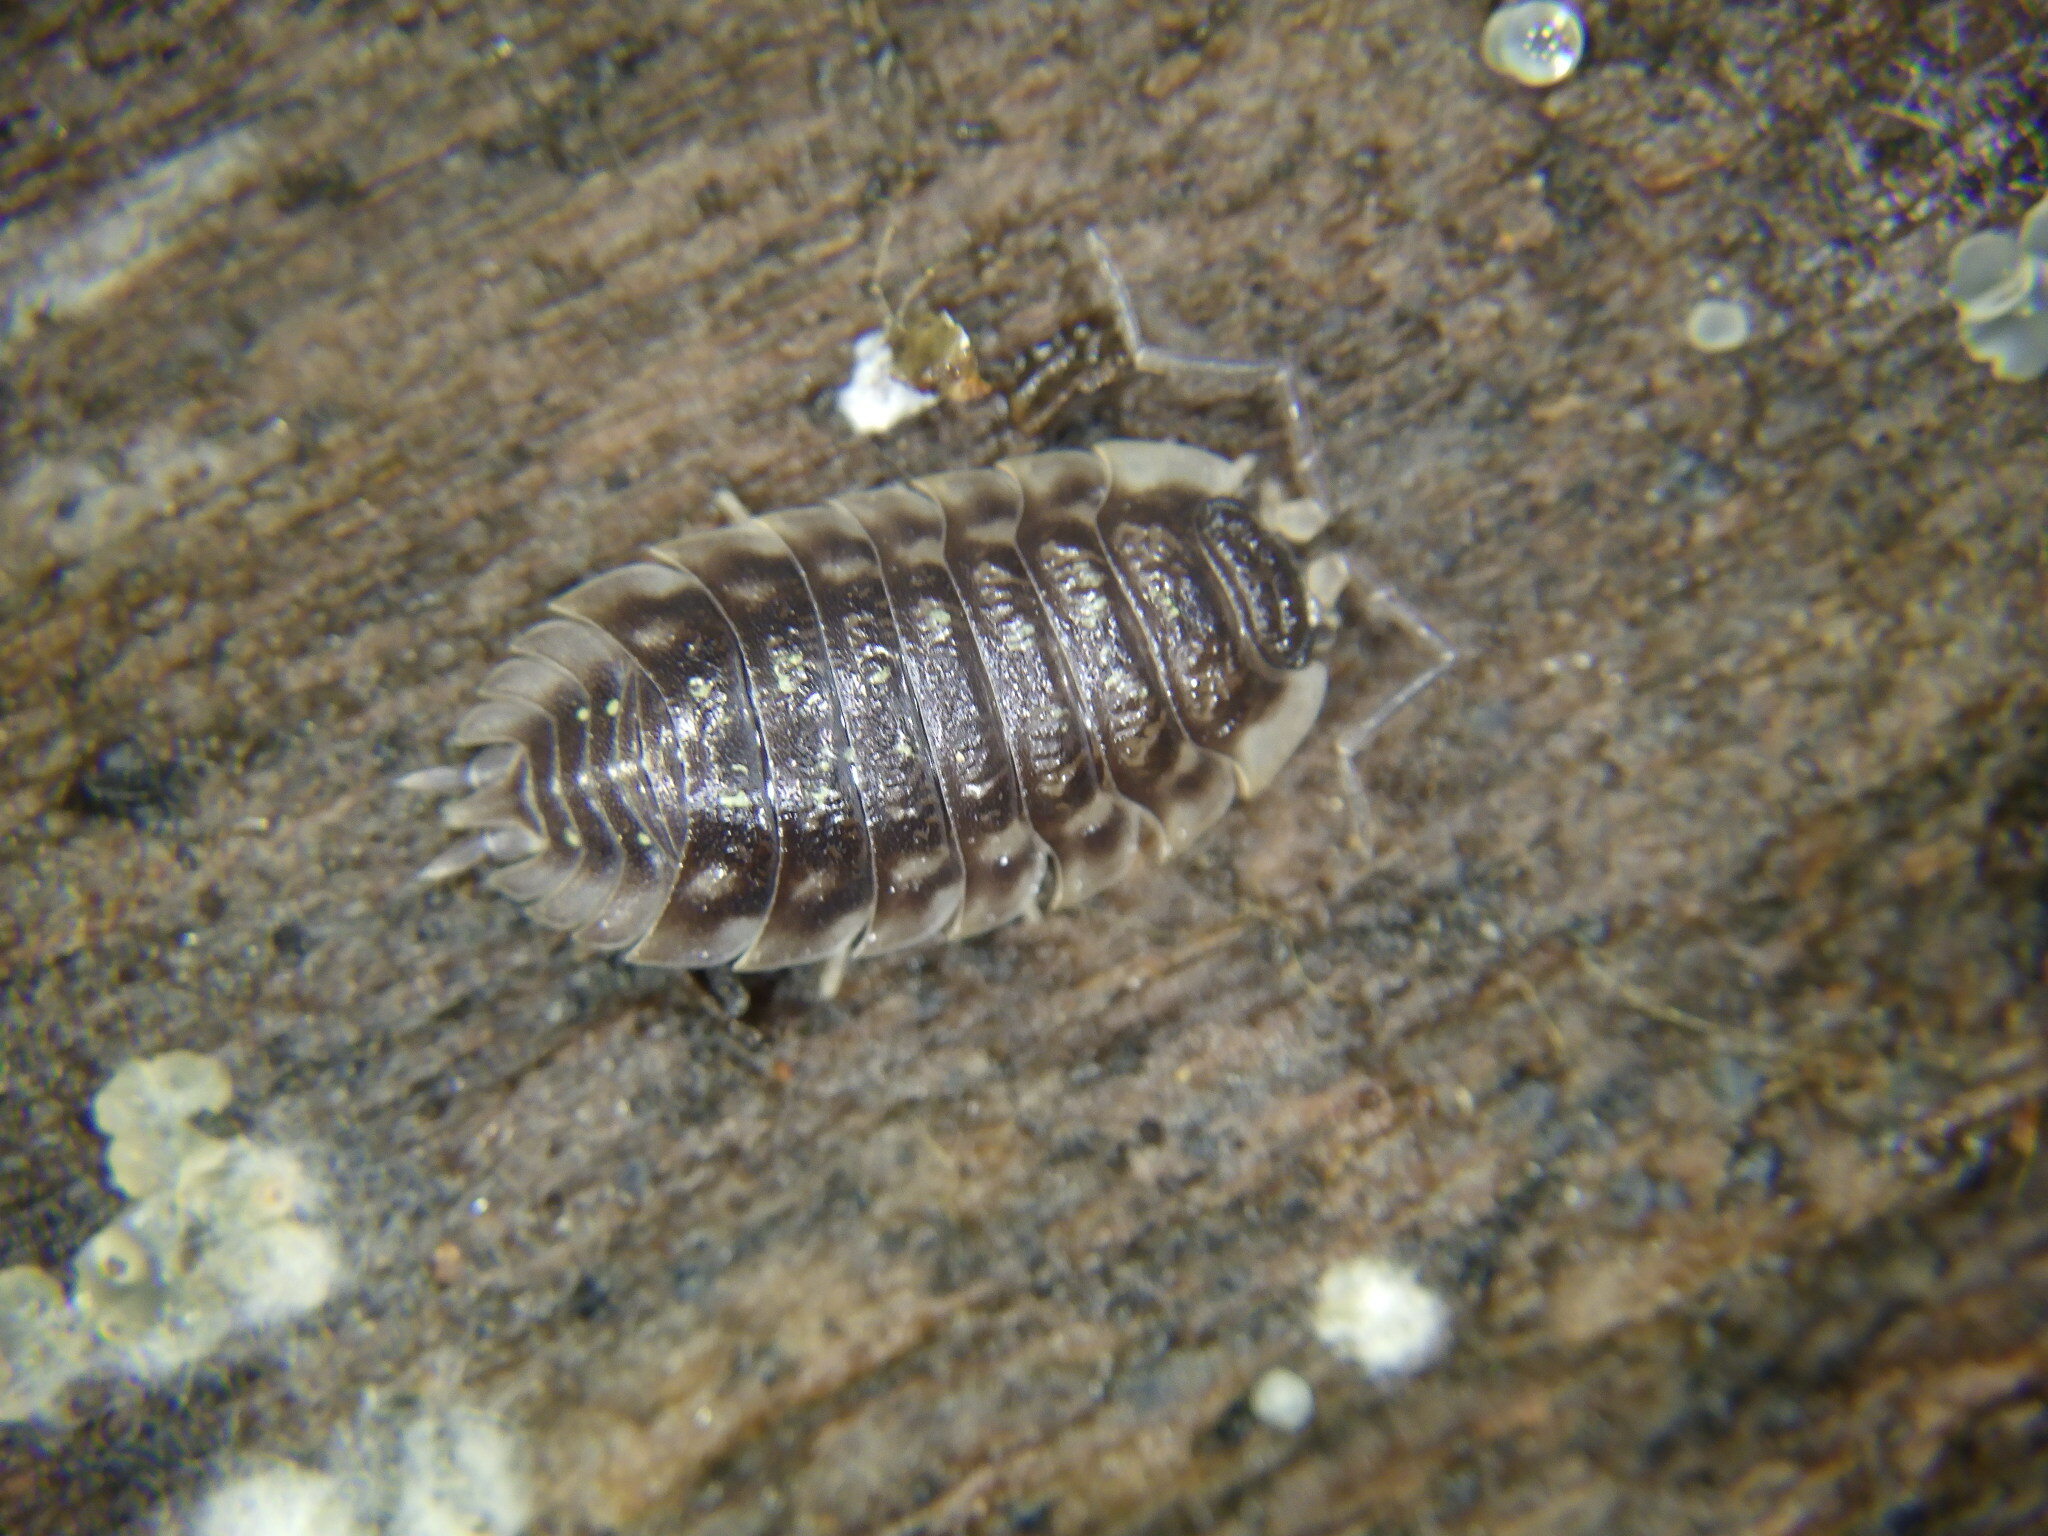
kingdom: Animalia
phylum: Arthropoda
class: Malacostraca
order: Isopoda
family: Oniscidae
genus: Oniscus
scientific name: Oniscus asellus
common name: Common shiny woodlouse
